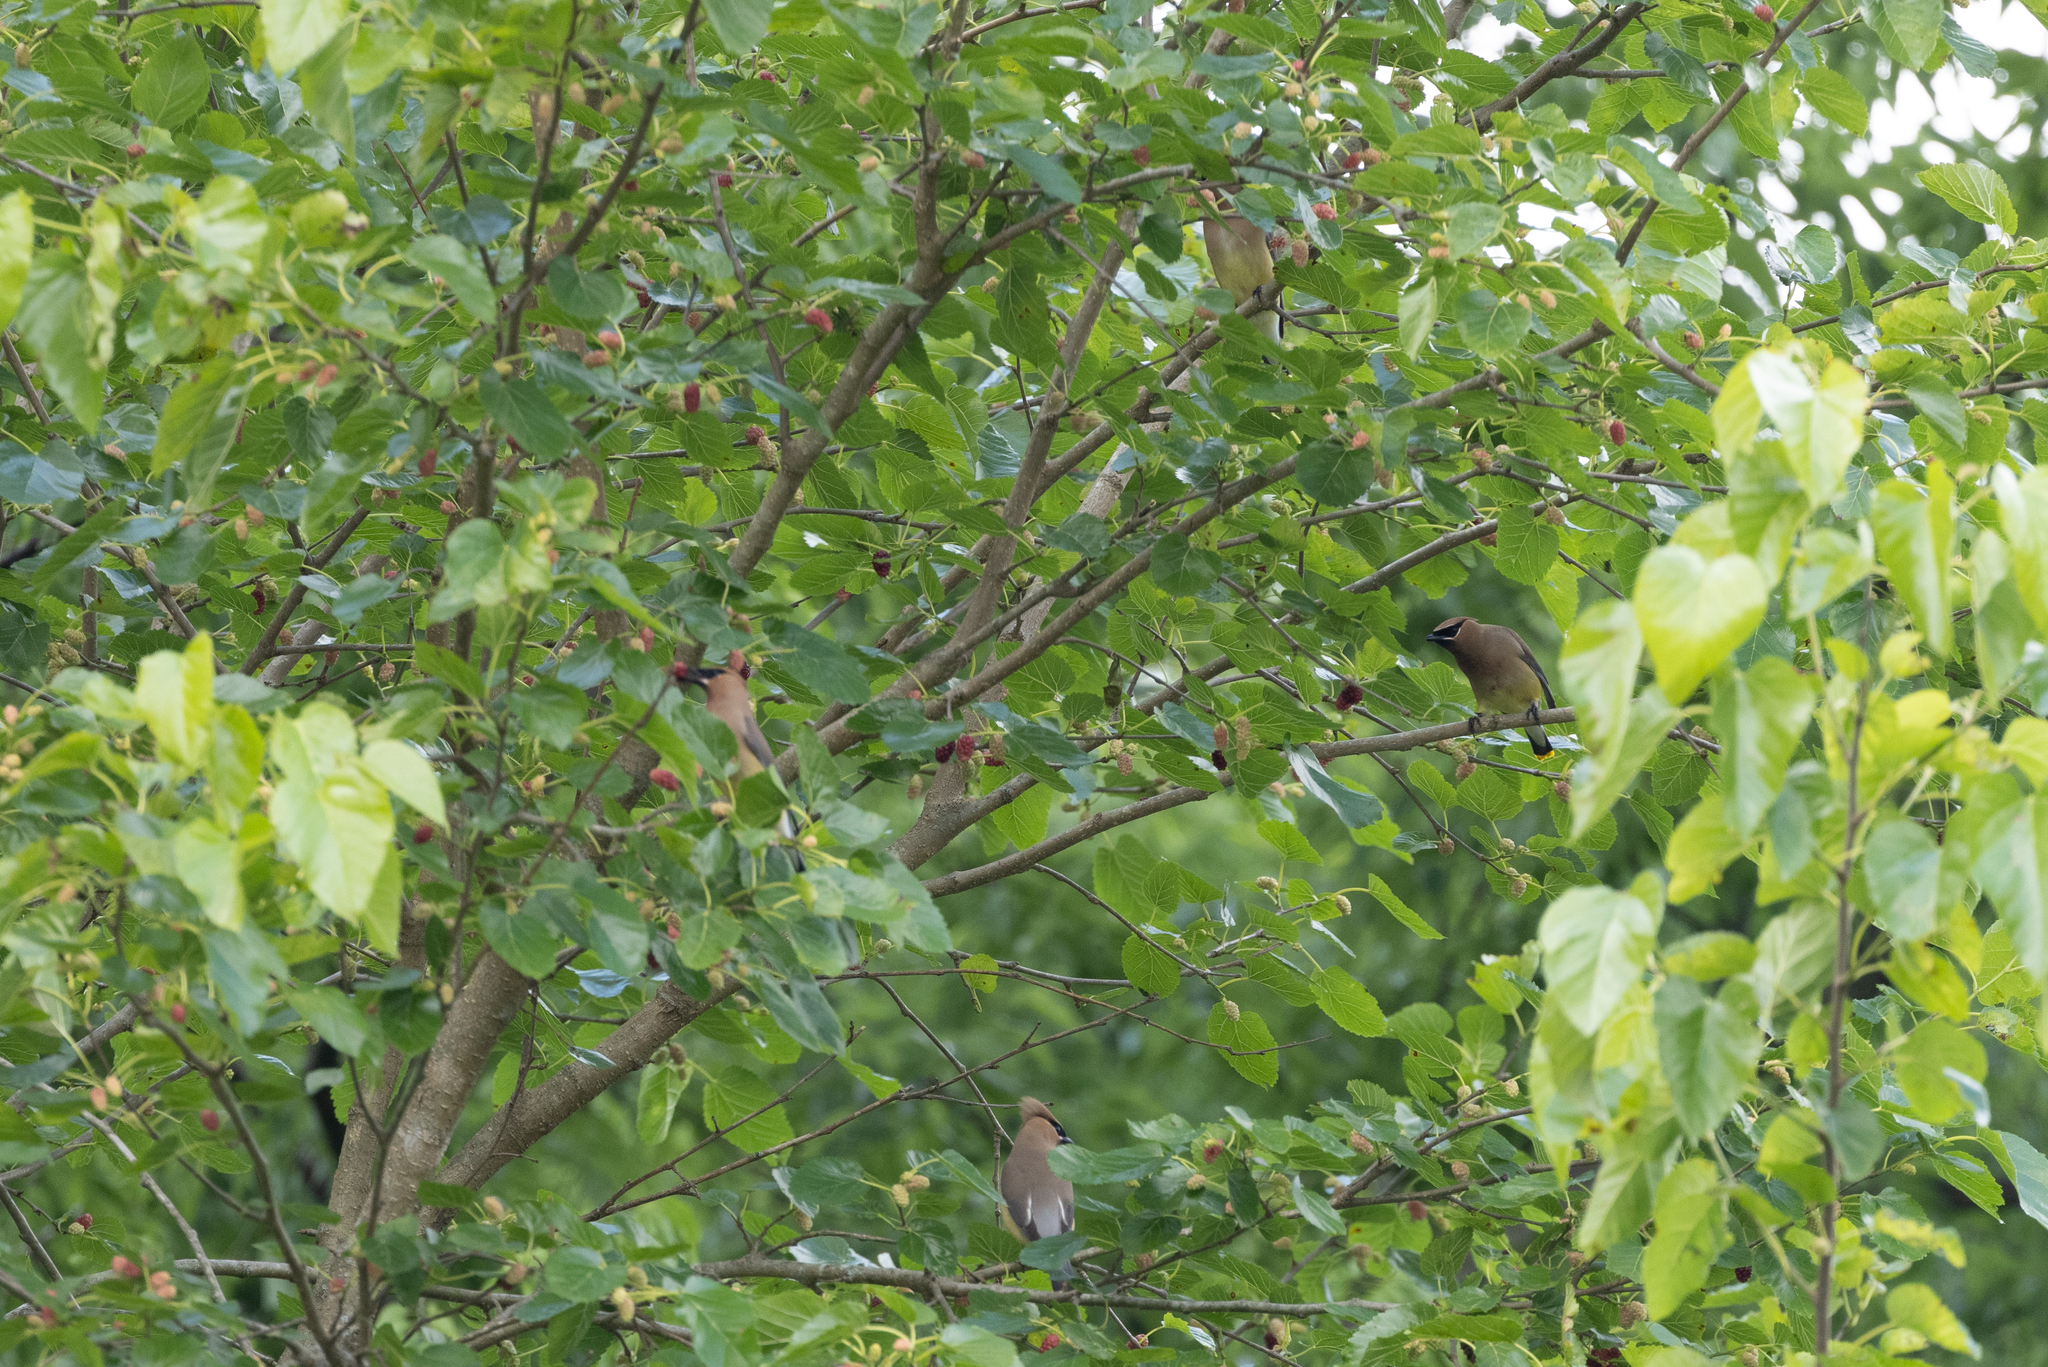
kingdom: Animalia
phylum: Chordata
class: Aves
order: Passeriformes
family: Bombycillidae
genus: Bombycilla
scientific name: Bombycilla cedrorum
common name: Cedar waxwing
